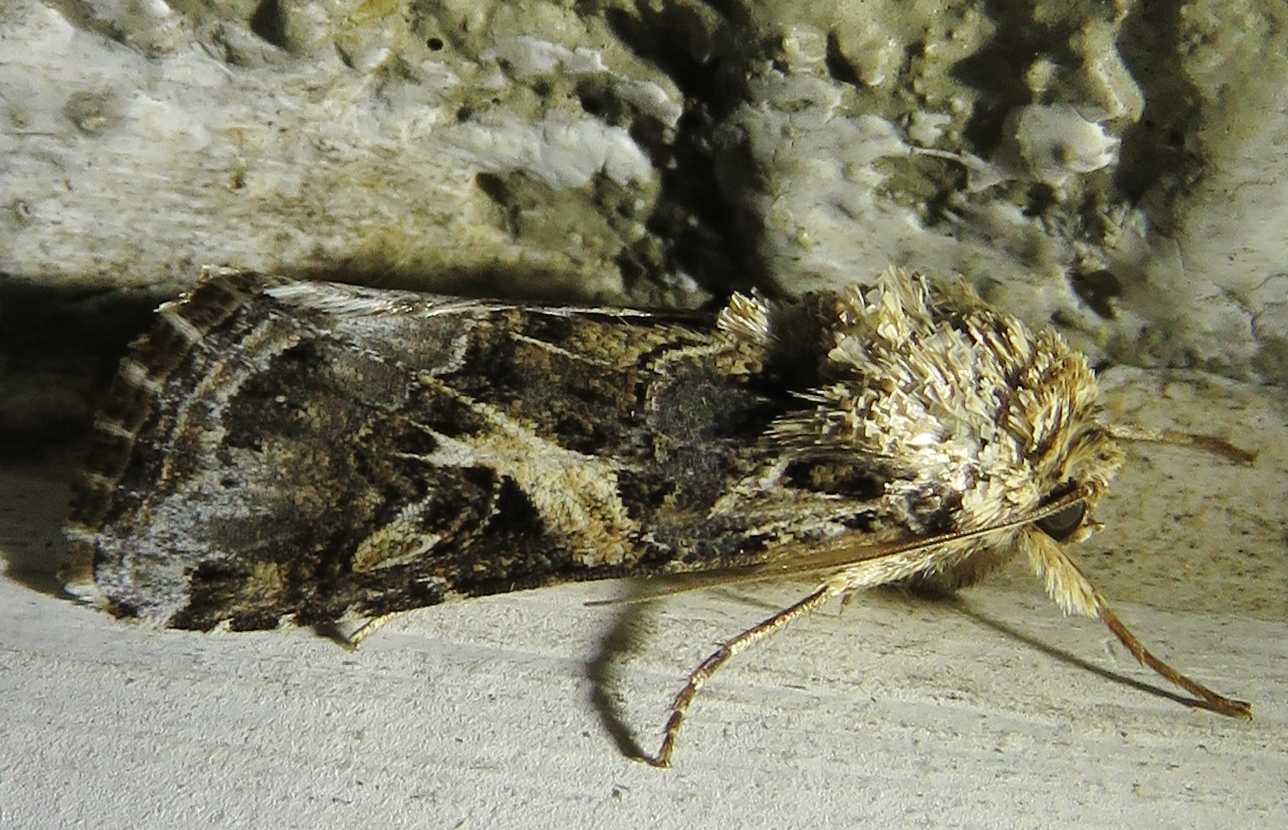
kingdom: Animalia
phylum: Arthropoda
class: Insecta
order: Lepidoptera
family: Noctuidae
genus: Spodoptera
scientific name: Spodoptera ornithogalli
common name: Yellow-striped armyworm
